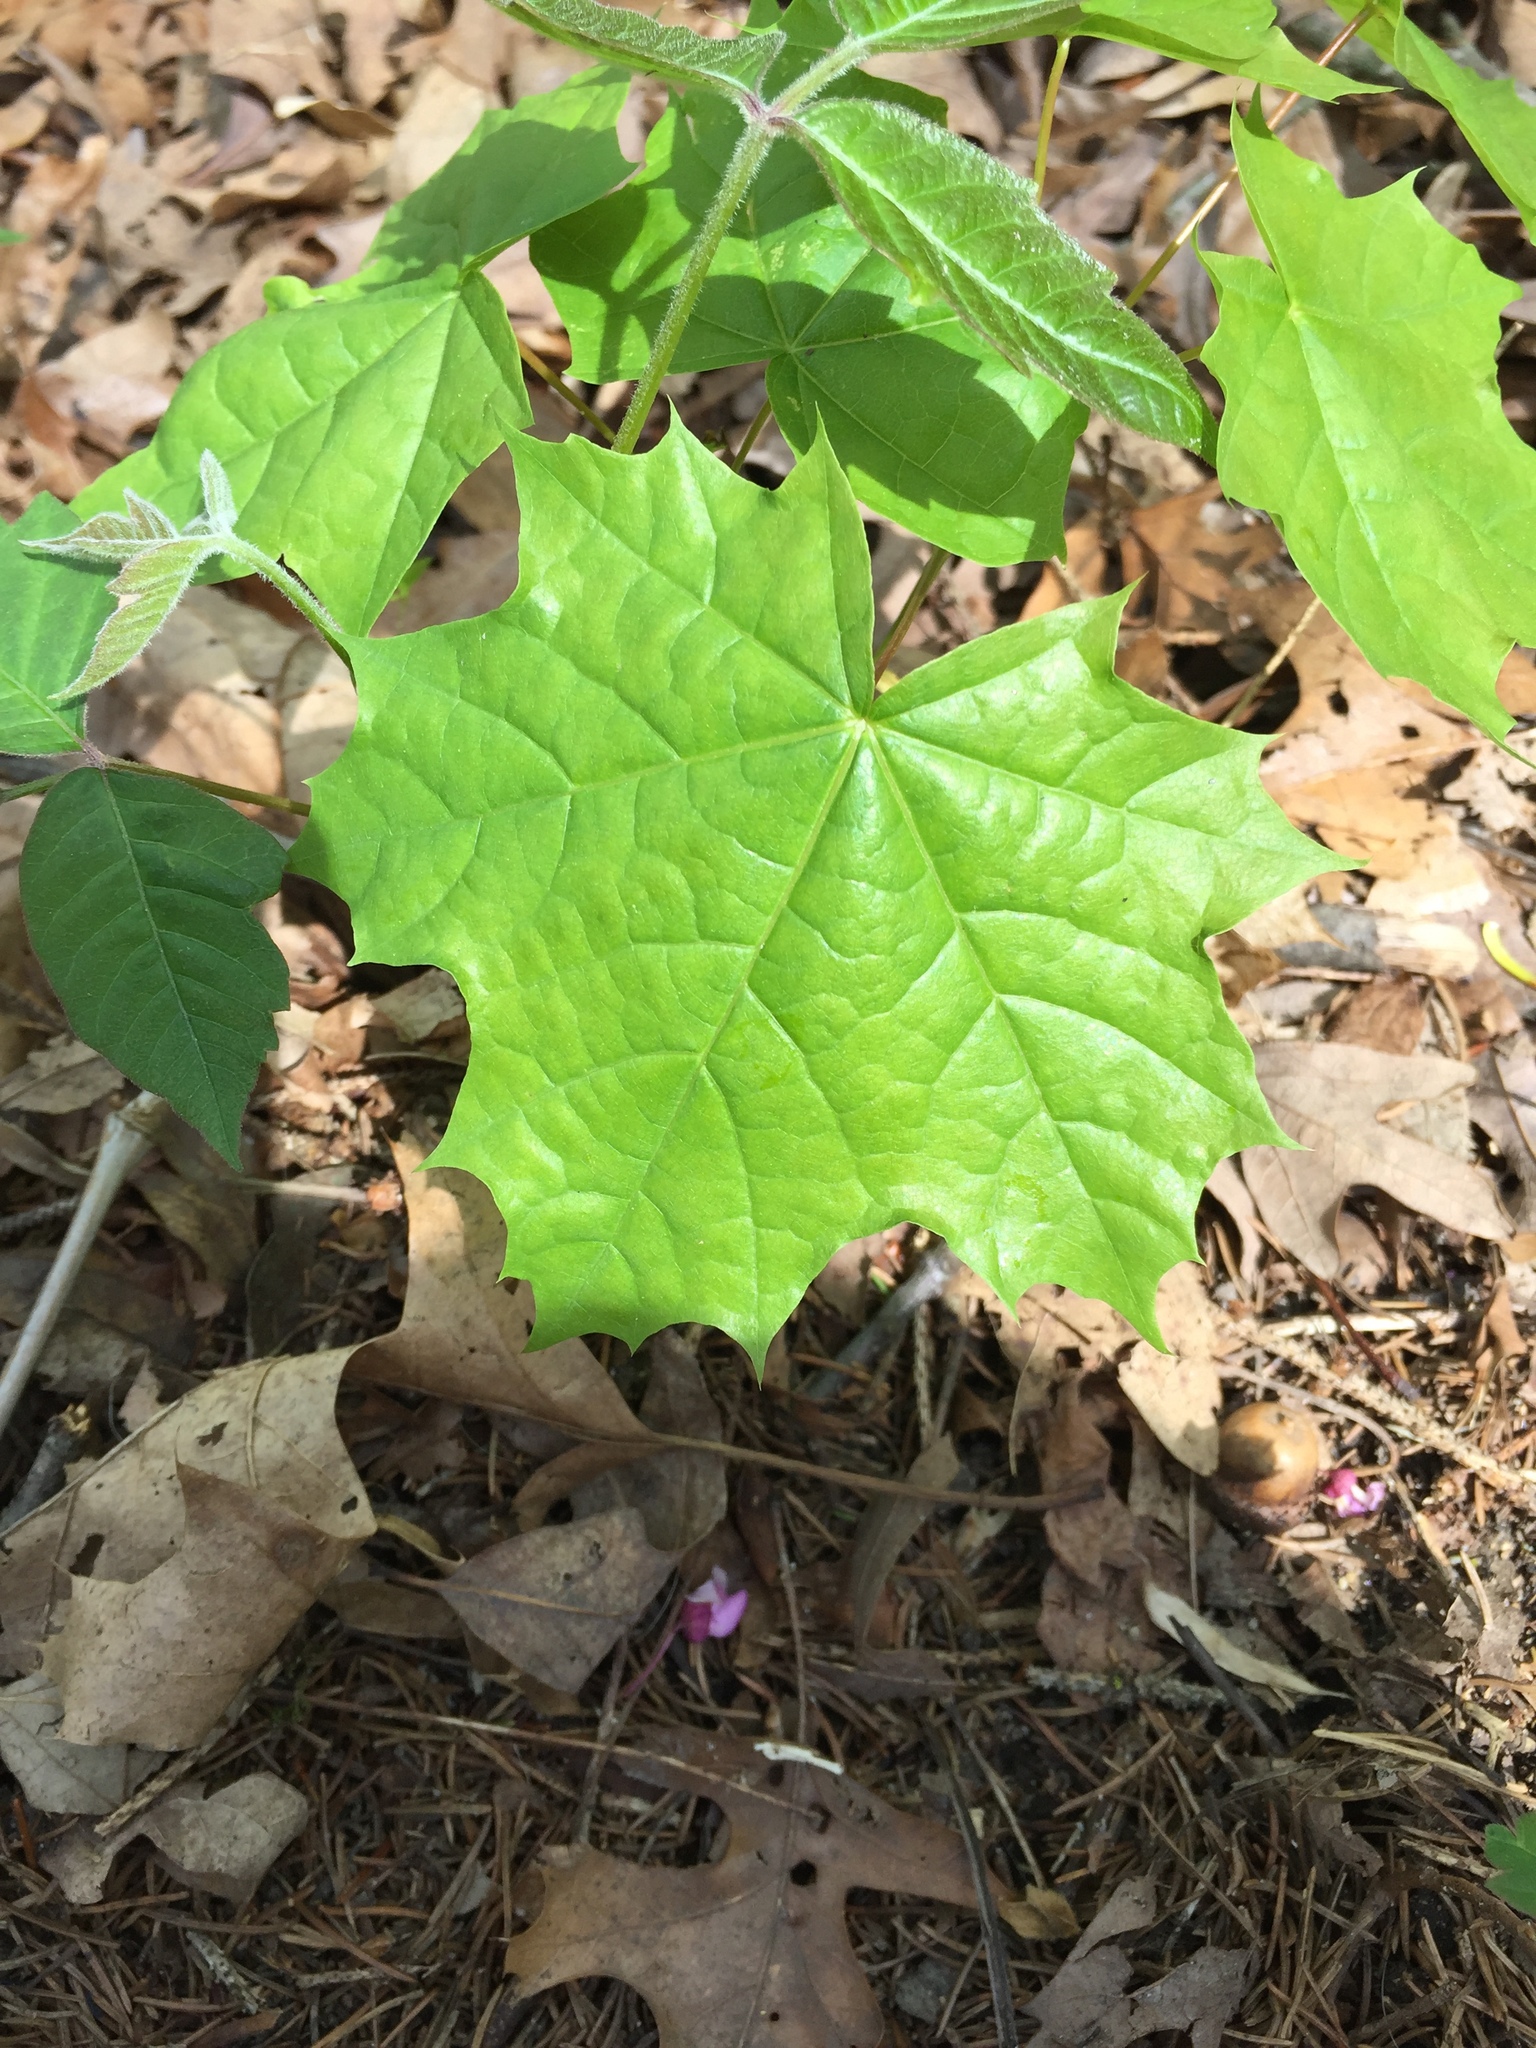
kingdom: Plantae
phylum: Tracheophyta
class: Magnoliopsida
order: Sapindales
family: Sapindaceae
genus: Acer
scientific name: Acer platanoides
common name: Norway maple
